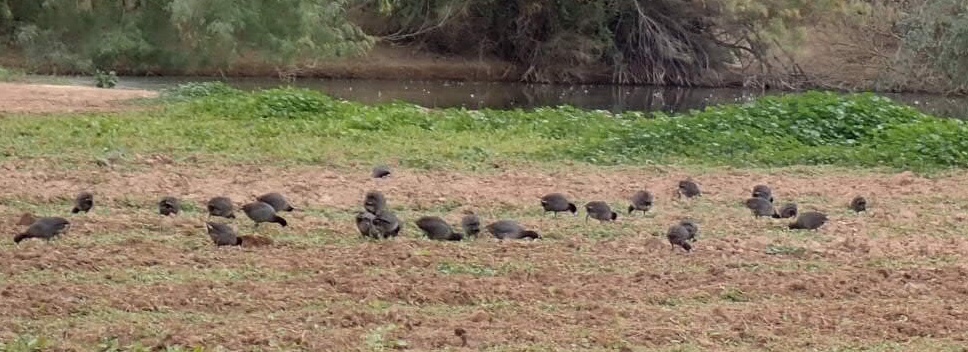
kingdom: Animalia
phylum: Chordata
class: Aves
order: Gruiformes
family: Rallidae
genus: Fulica
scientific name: Fulica americana
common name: American coot
